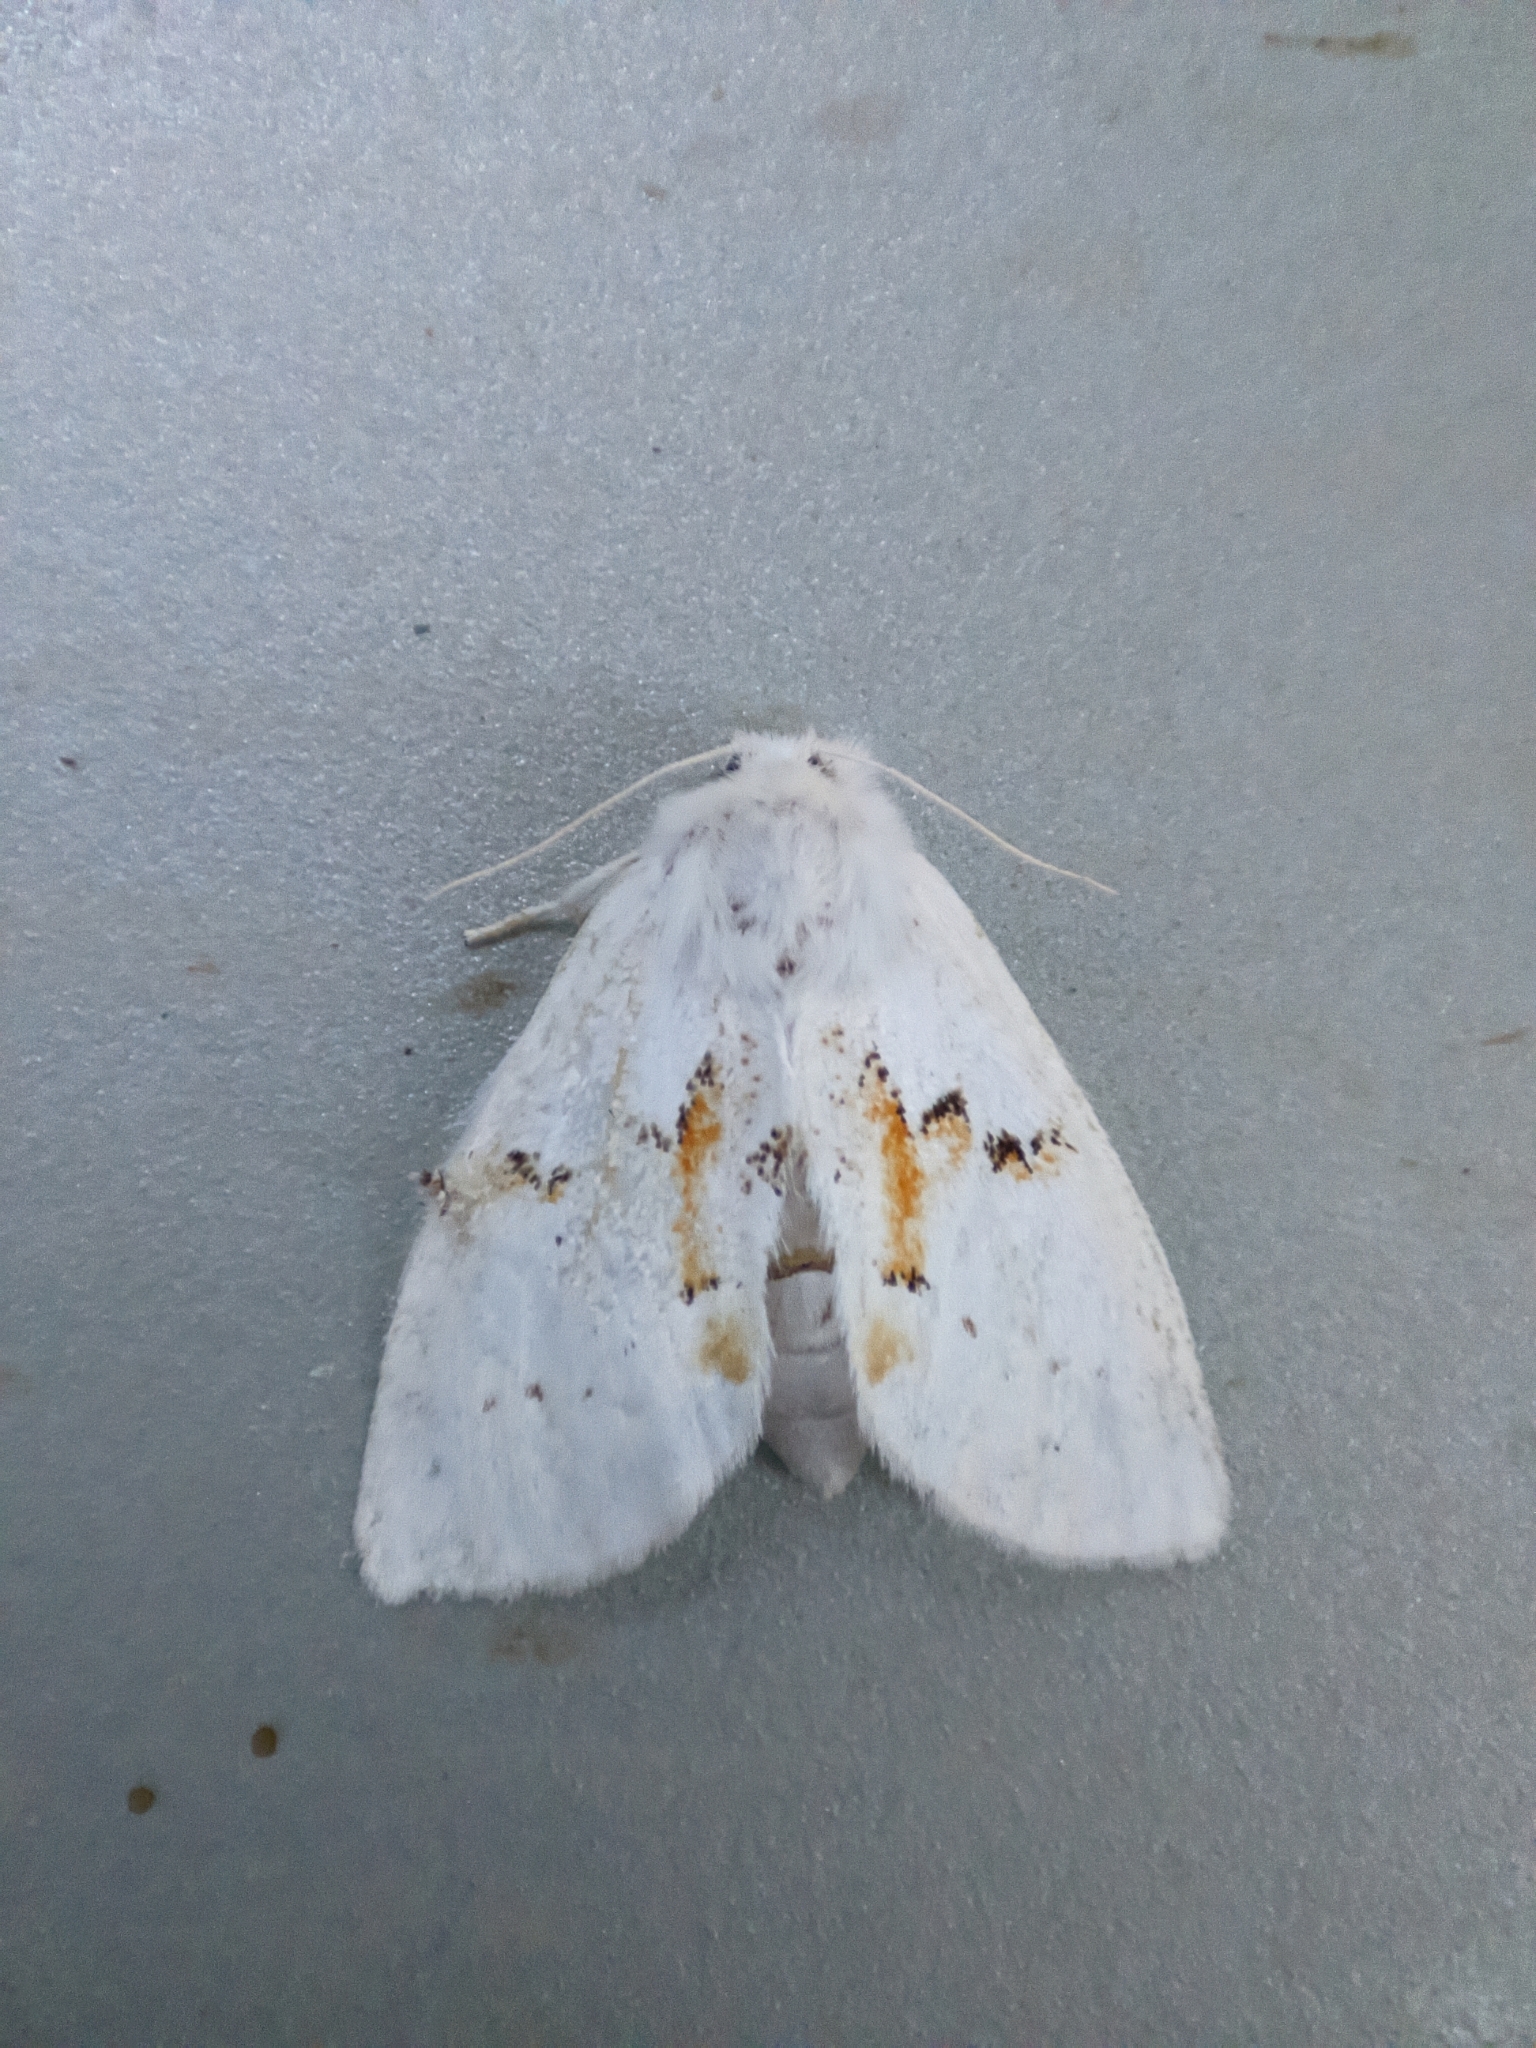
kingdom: Animalia
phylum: Arthropoda
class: Insecta
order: Lepidoptera
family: Notodontidae
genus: Leucodonta
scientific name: Leucodonta bicoloria
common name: White prominent
